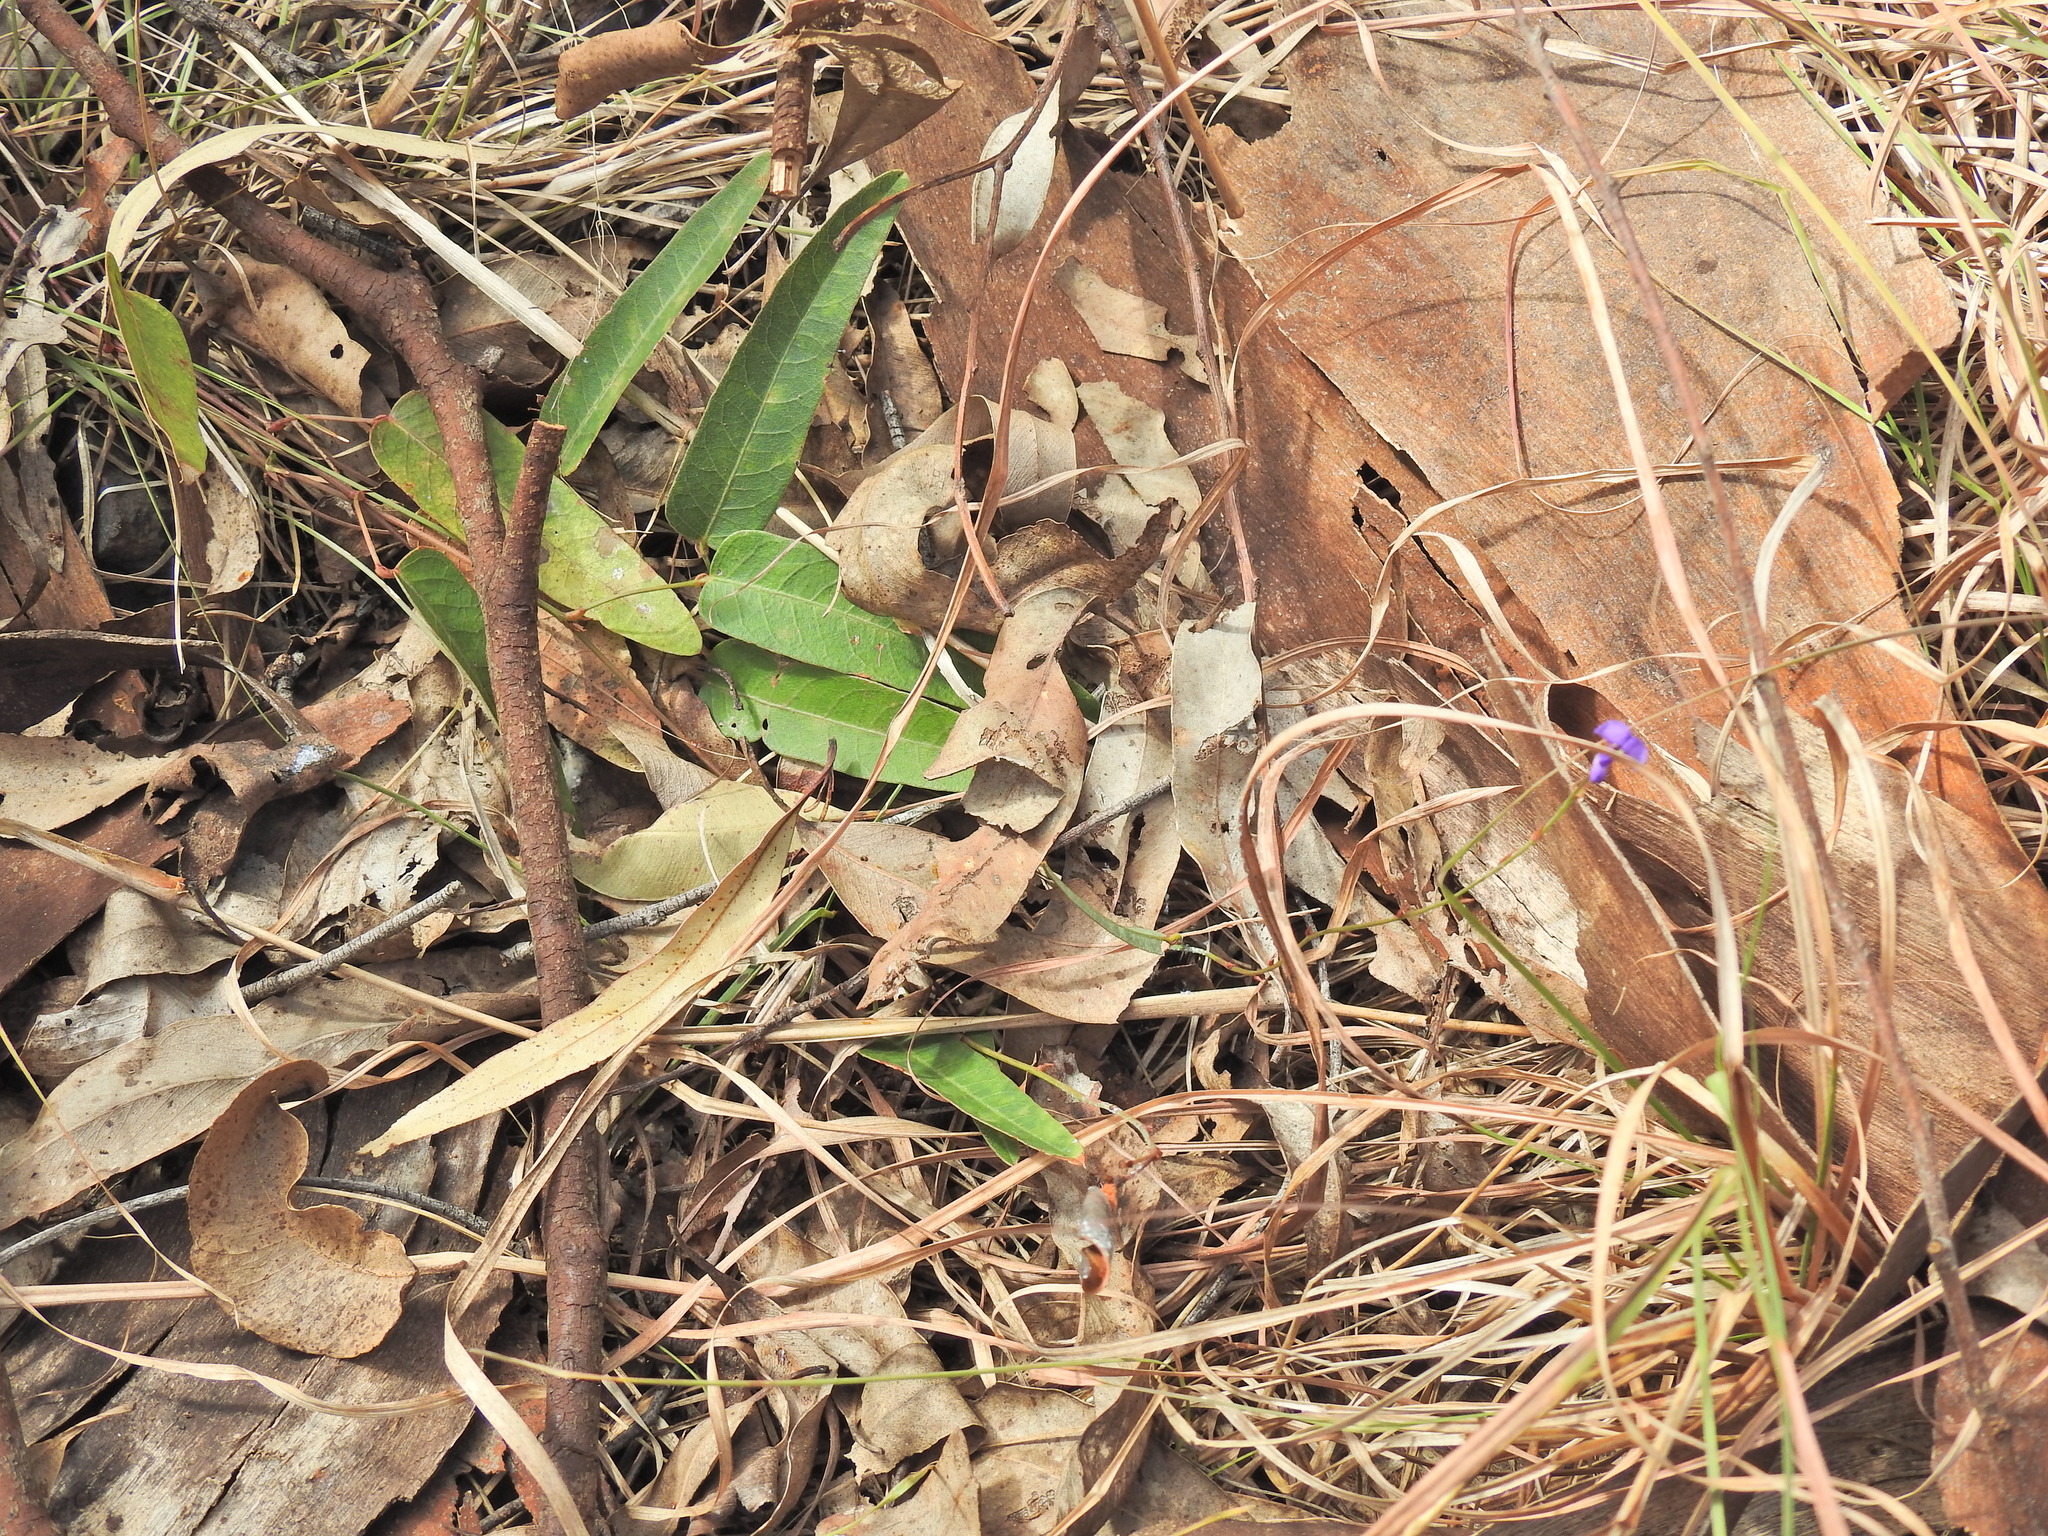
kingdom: Plantae
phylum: Tracheophyta
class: Magnoliopsida
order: Fabales
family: Fabaceae
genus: Hardenbergia
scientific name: Hardenbergia violacea
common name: Coral-pea
